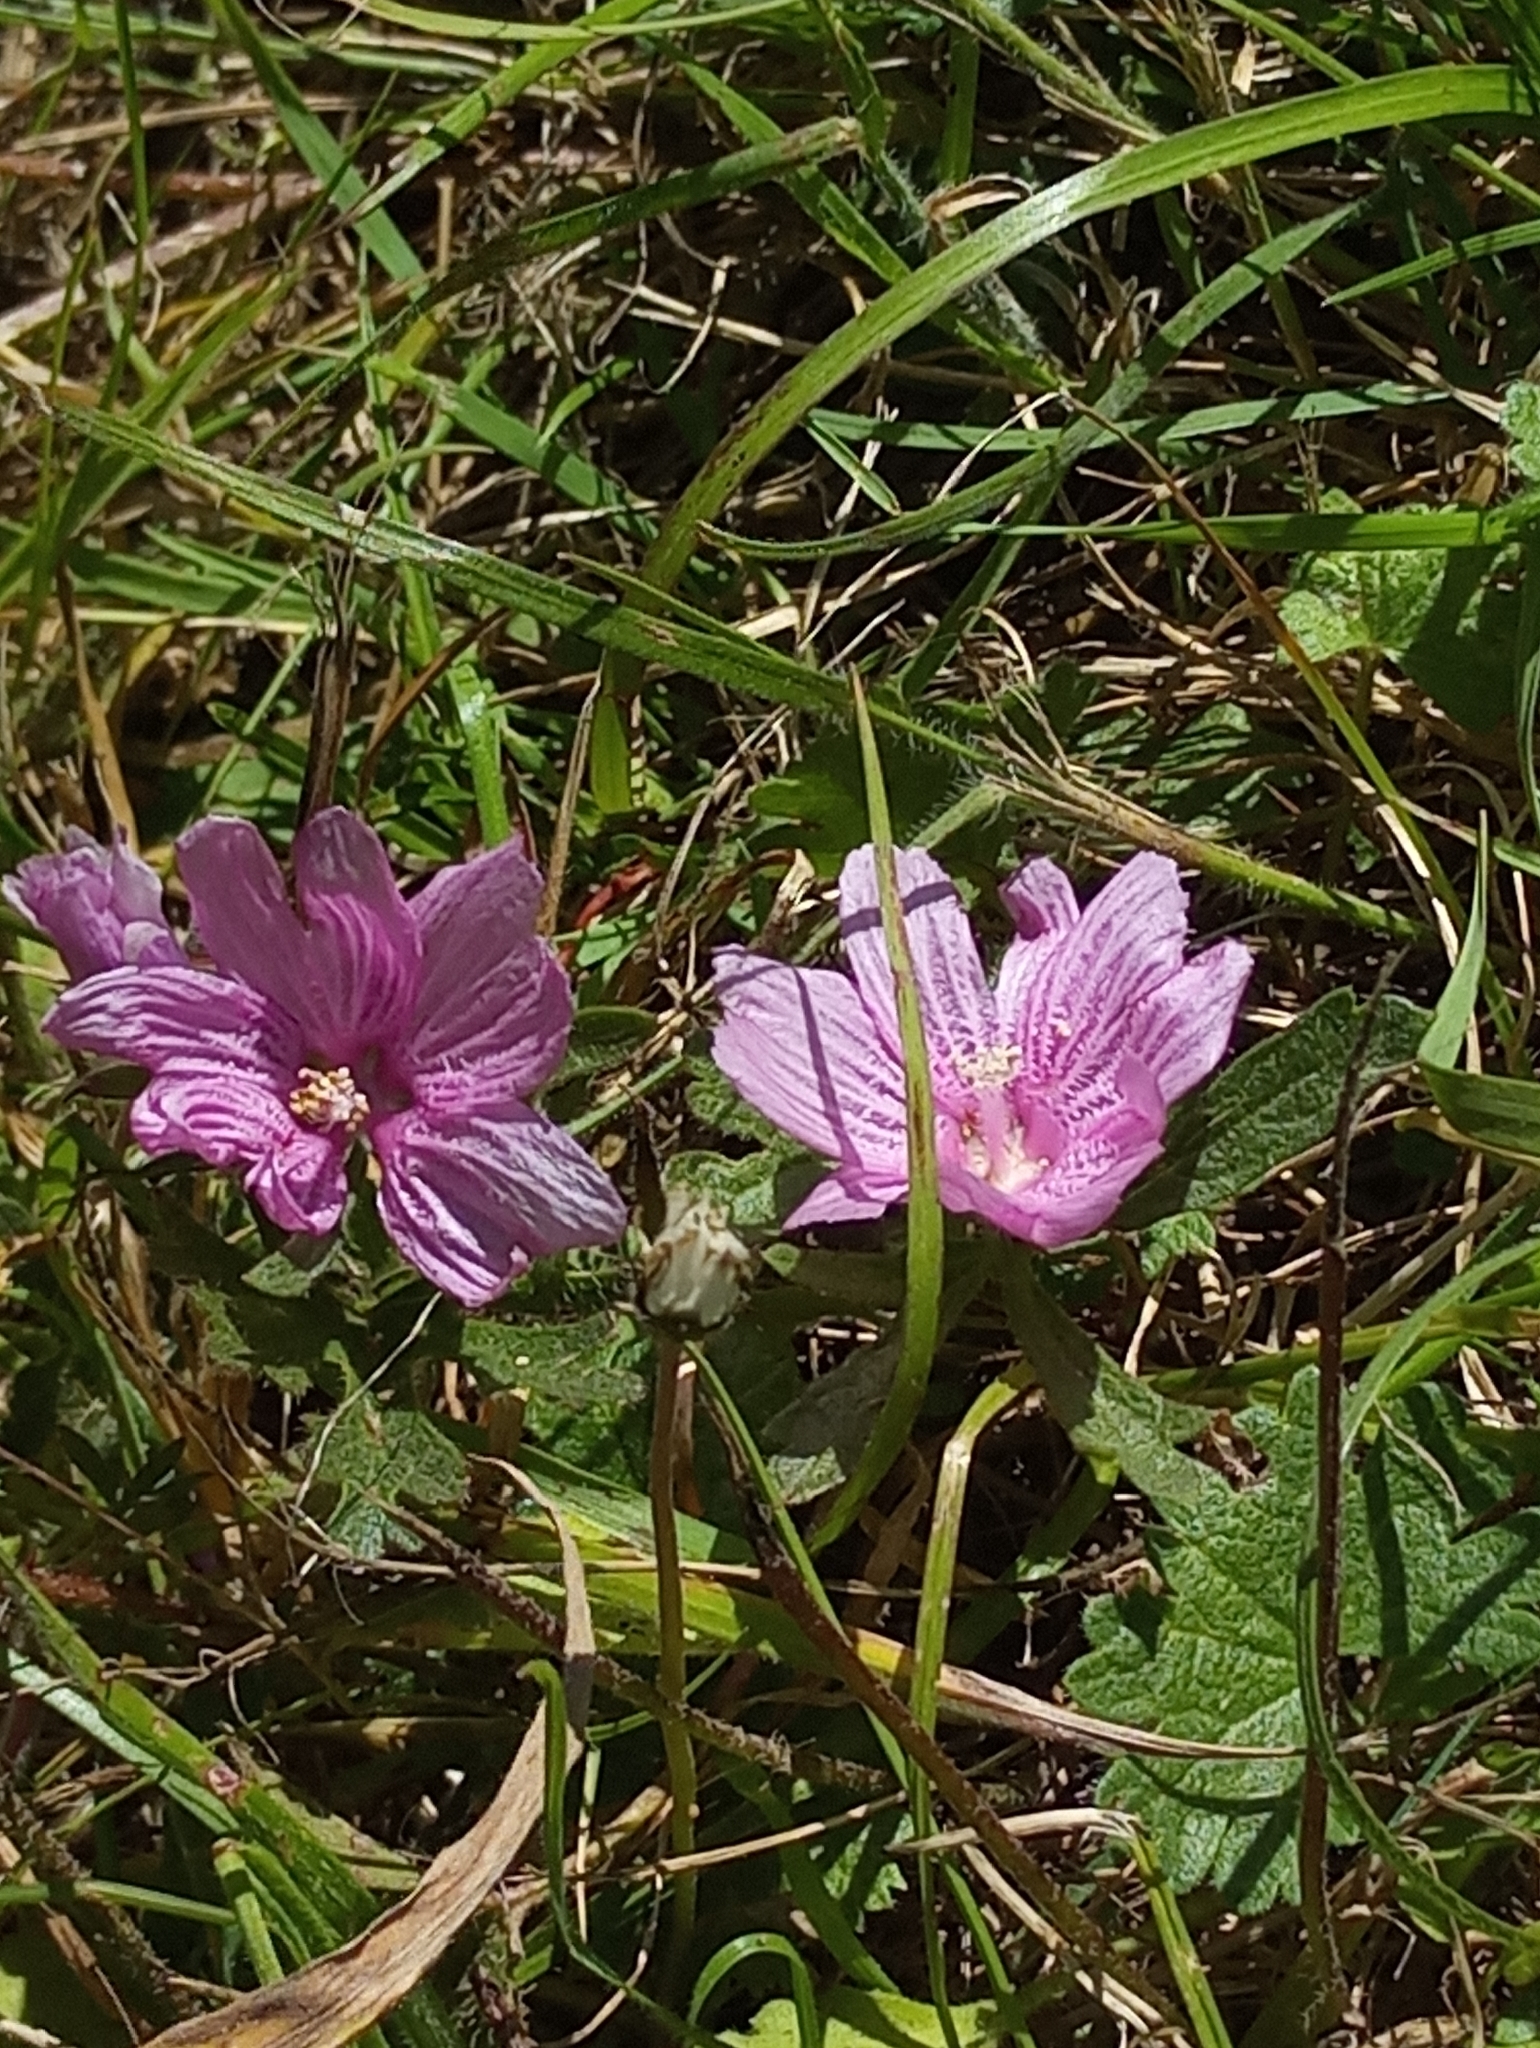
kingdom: Plantae
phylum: Tracheophyta
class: Magnoliopsida
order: Malvales
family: Malvaceae
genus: Sidalcea
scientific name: Sidalcea malviflora
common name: Greek mallow
